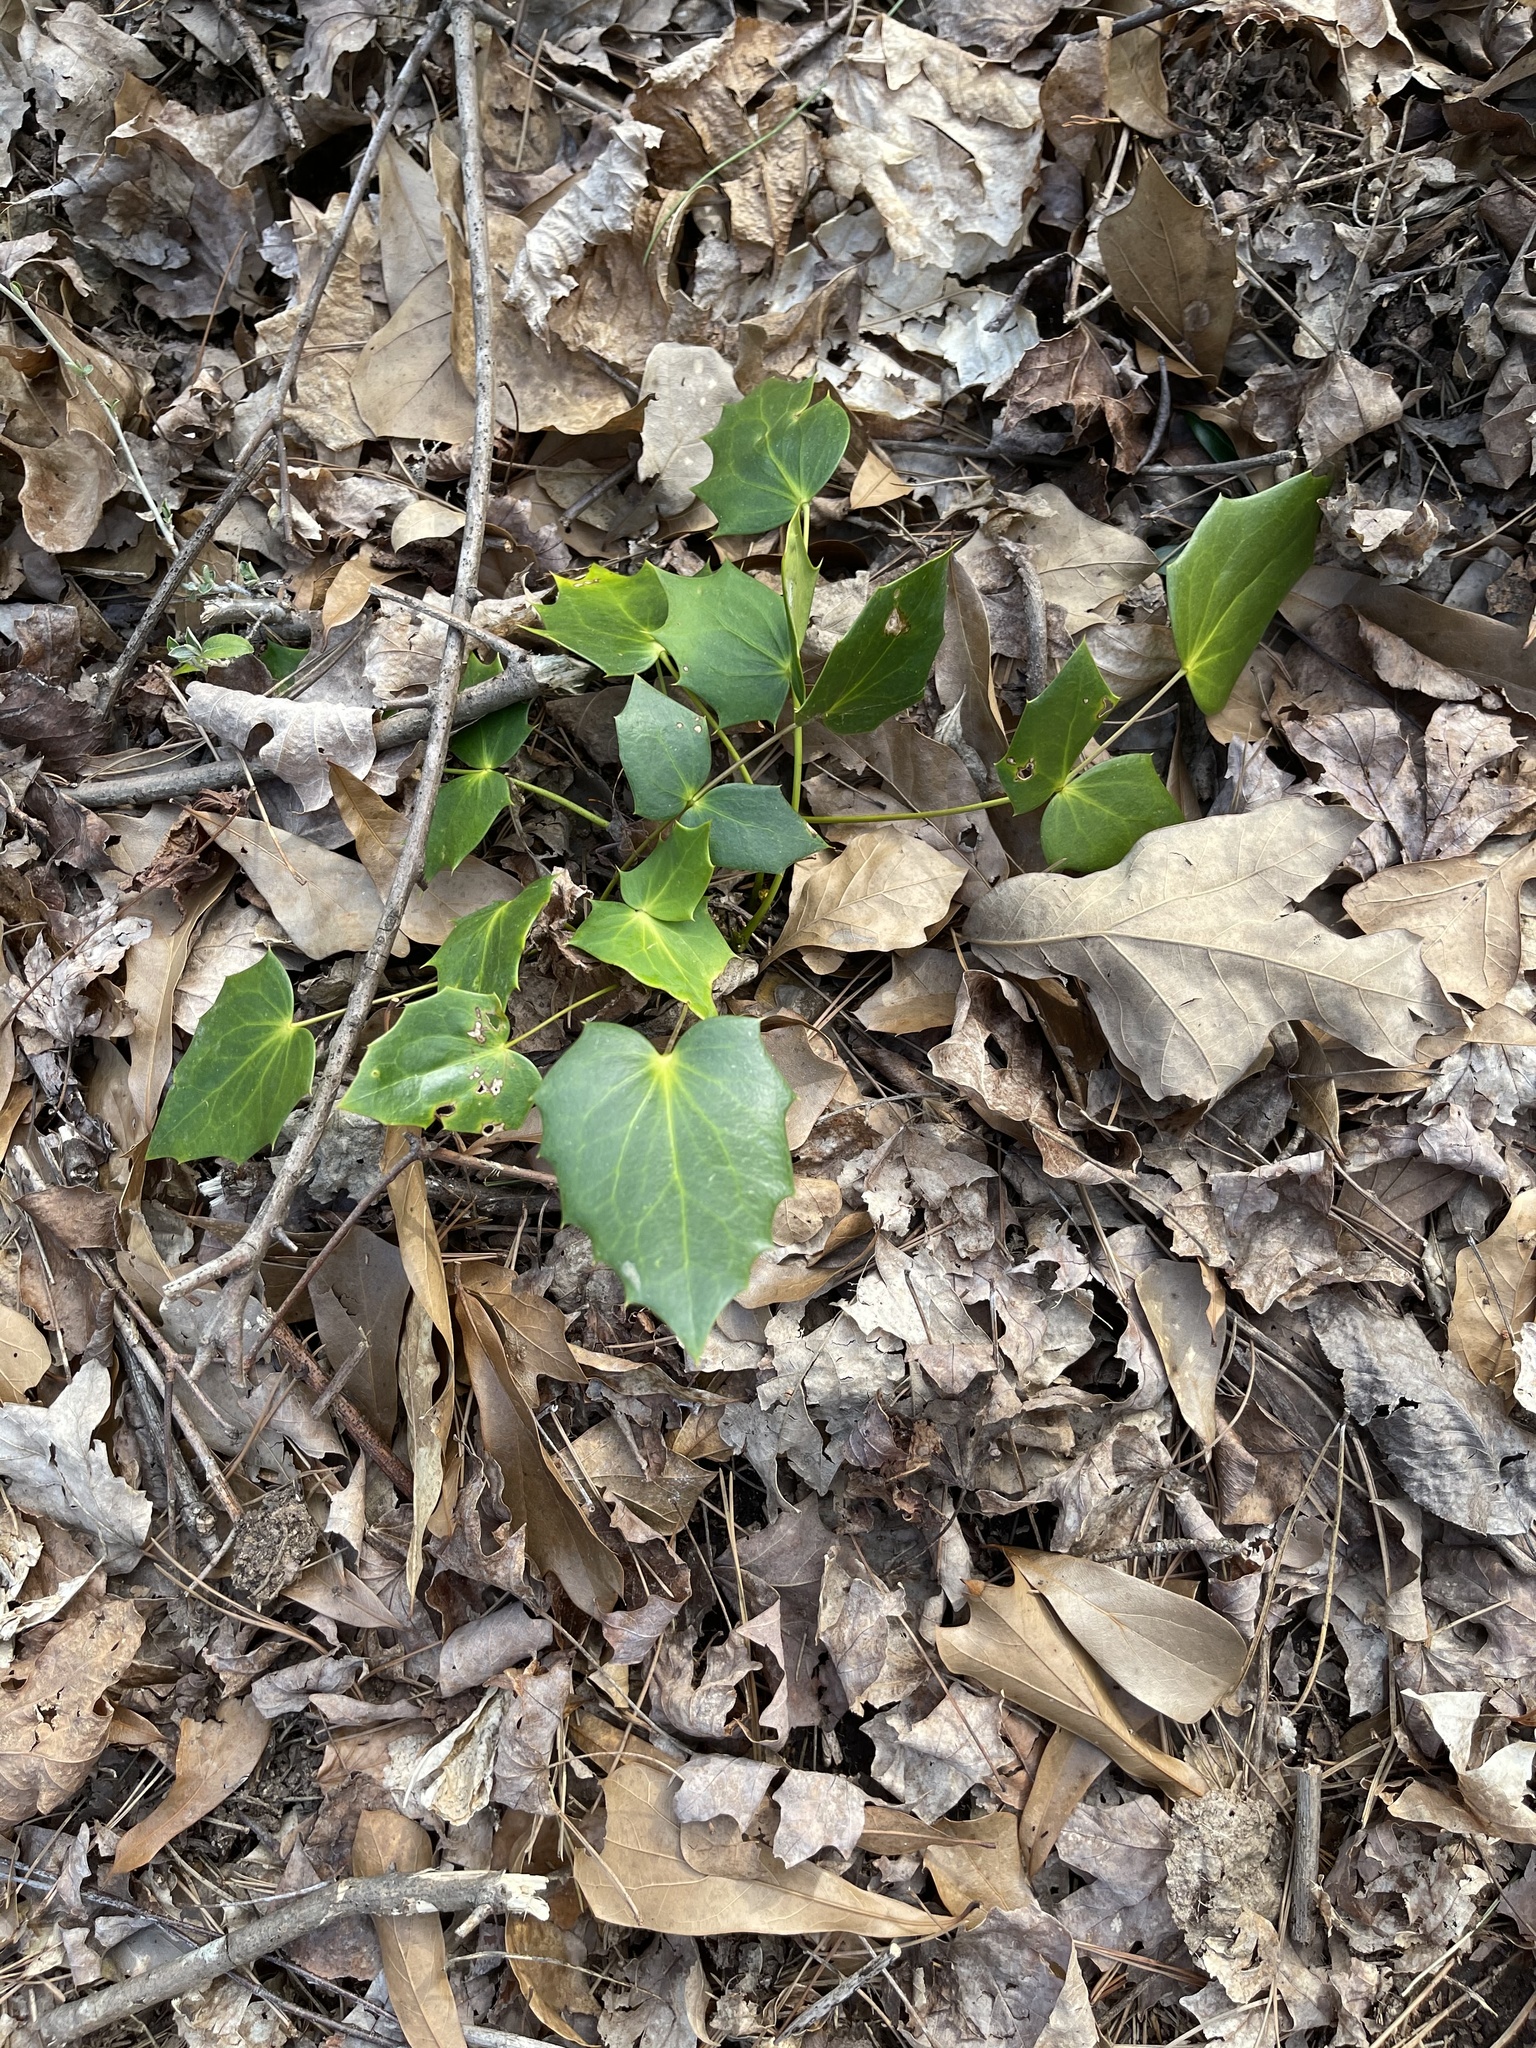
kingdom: Plantae
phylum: Tracheophyta
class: Magnoliopsida
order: Ranunculales
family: Berberidaceae
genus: Mahonia
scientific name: Mahonia bealei
